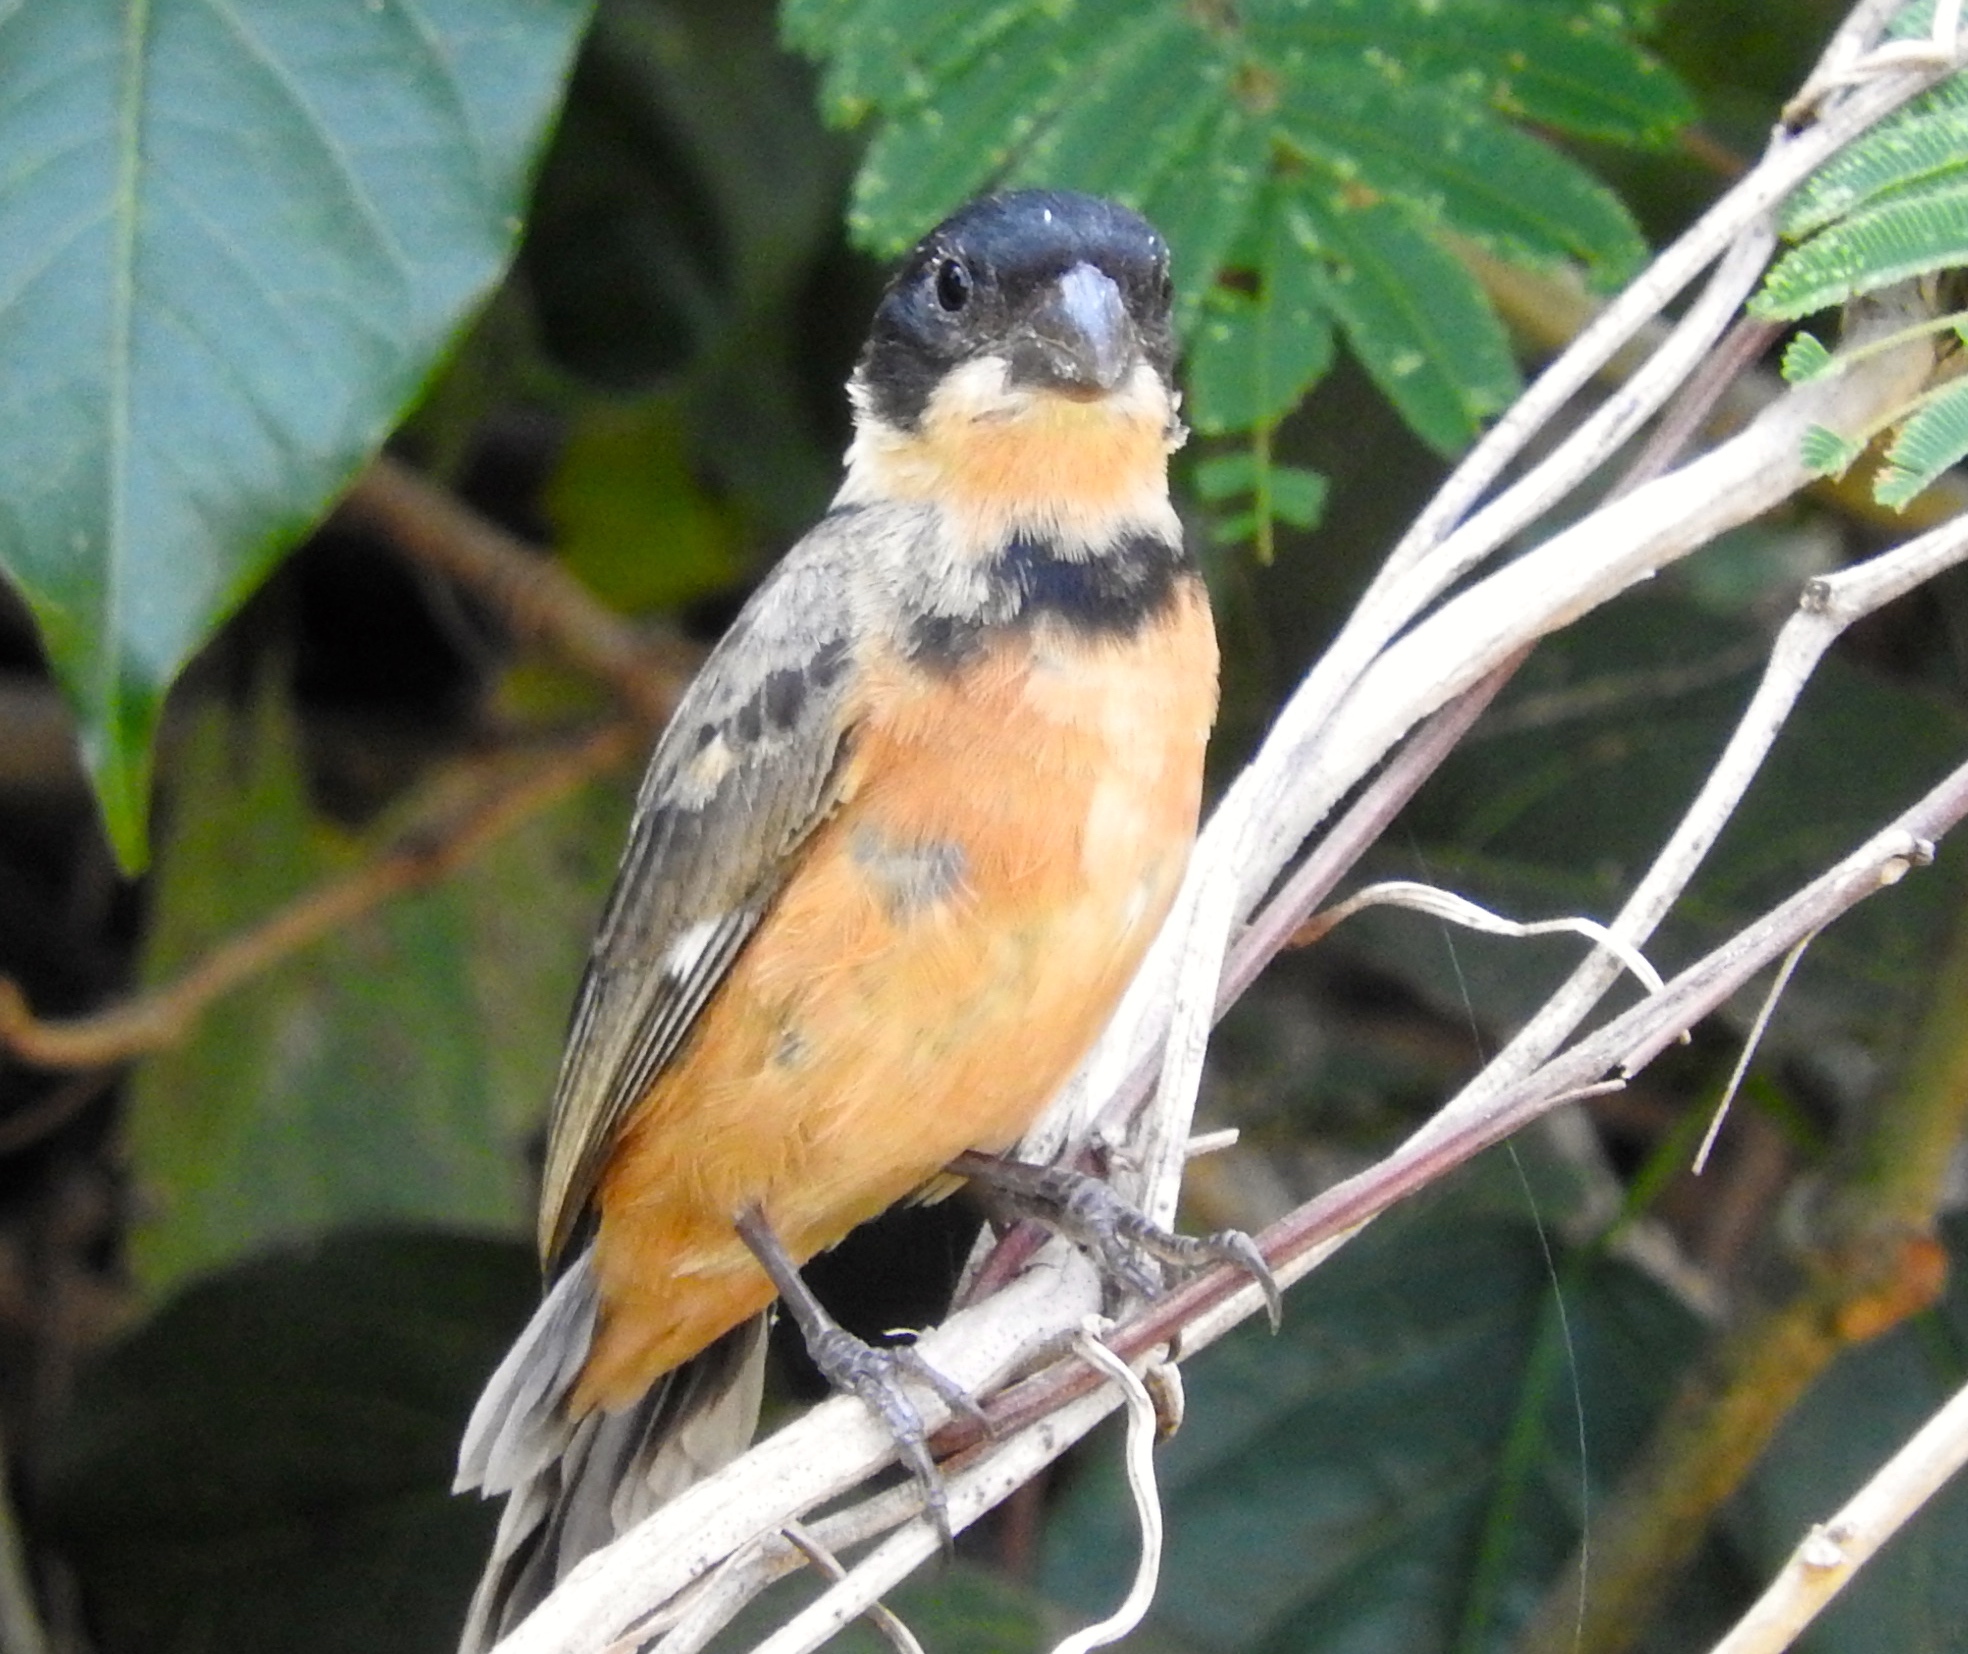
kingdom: Animalia
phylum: Chordata
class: Aves
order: Passeriformes
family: Thraupidae
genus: Sporophila
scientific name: Sporophila torqueola
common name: White-collared seedeater
